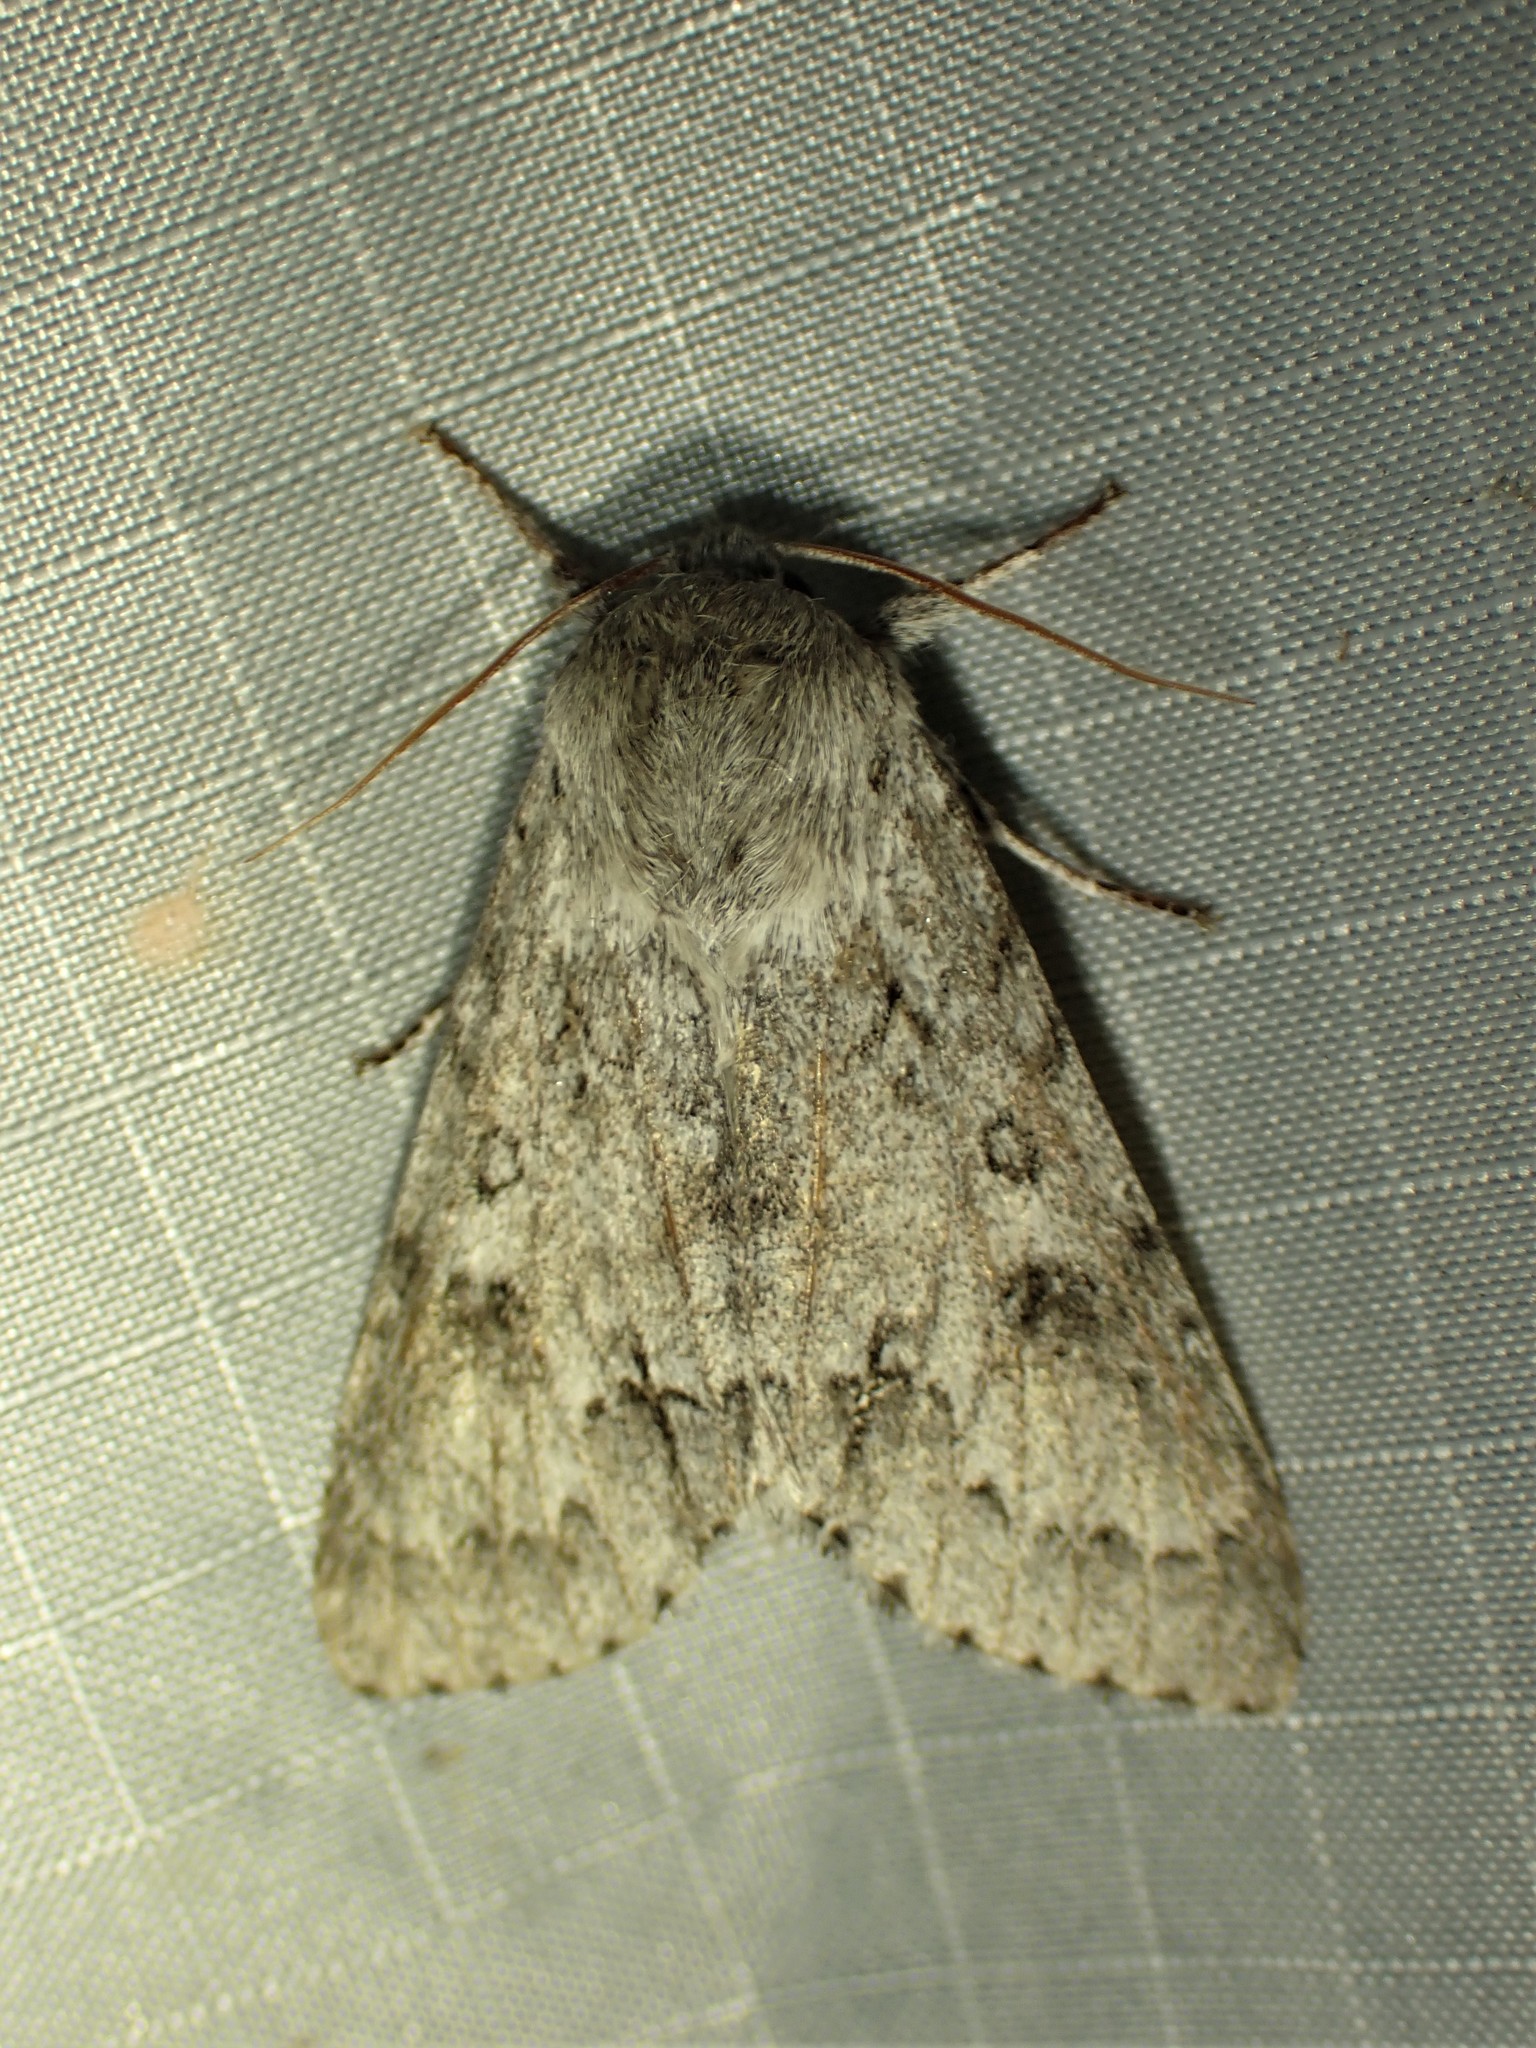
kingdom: Animalia
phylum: Arthropoda
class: Insecta
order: Lepidoptera
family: Noctuidae
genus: Acronicta
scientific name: Acronicta insita
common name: Large gray dagger
